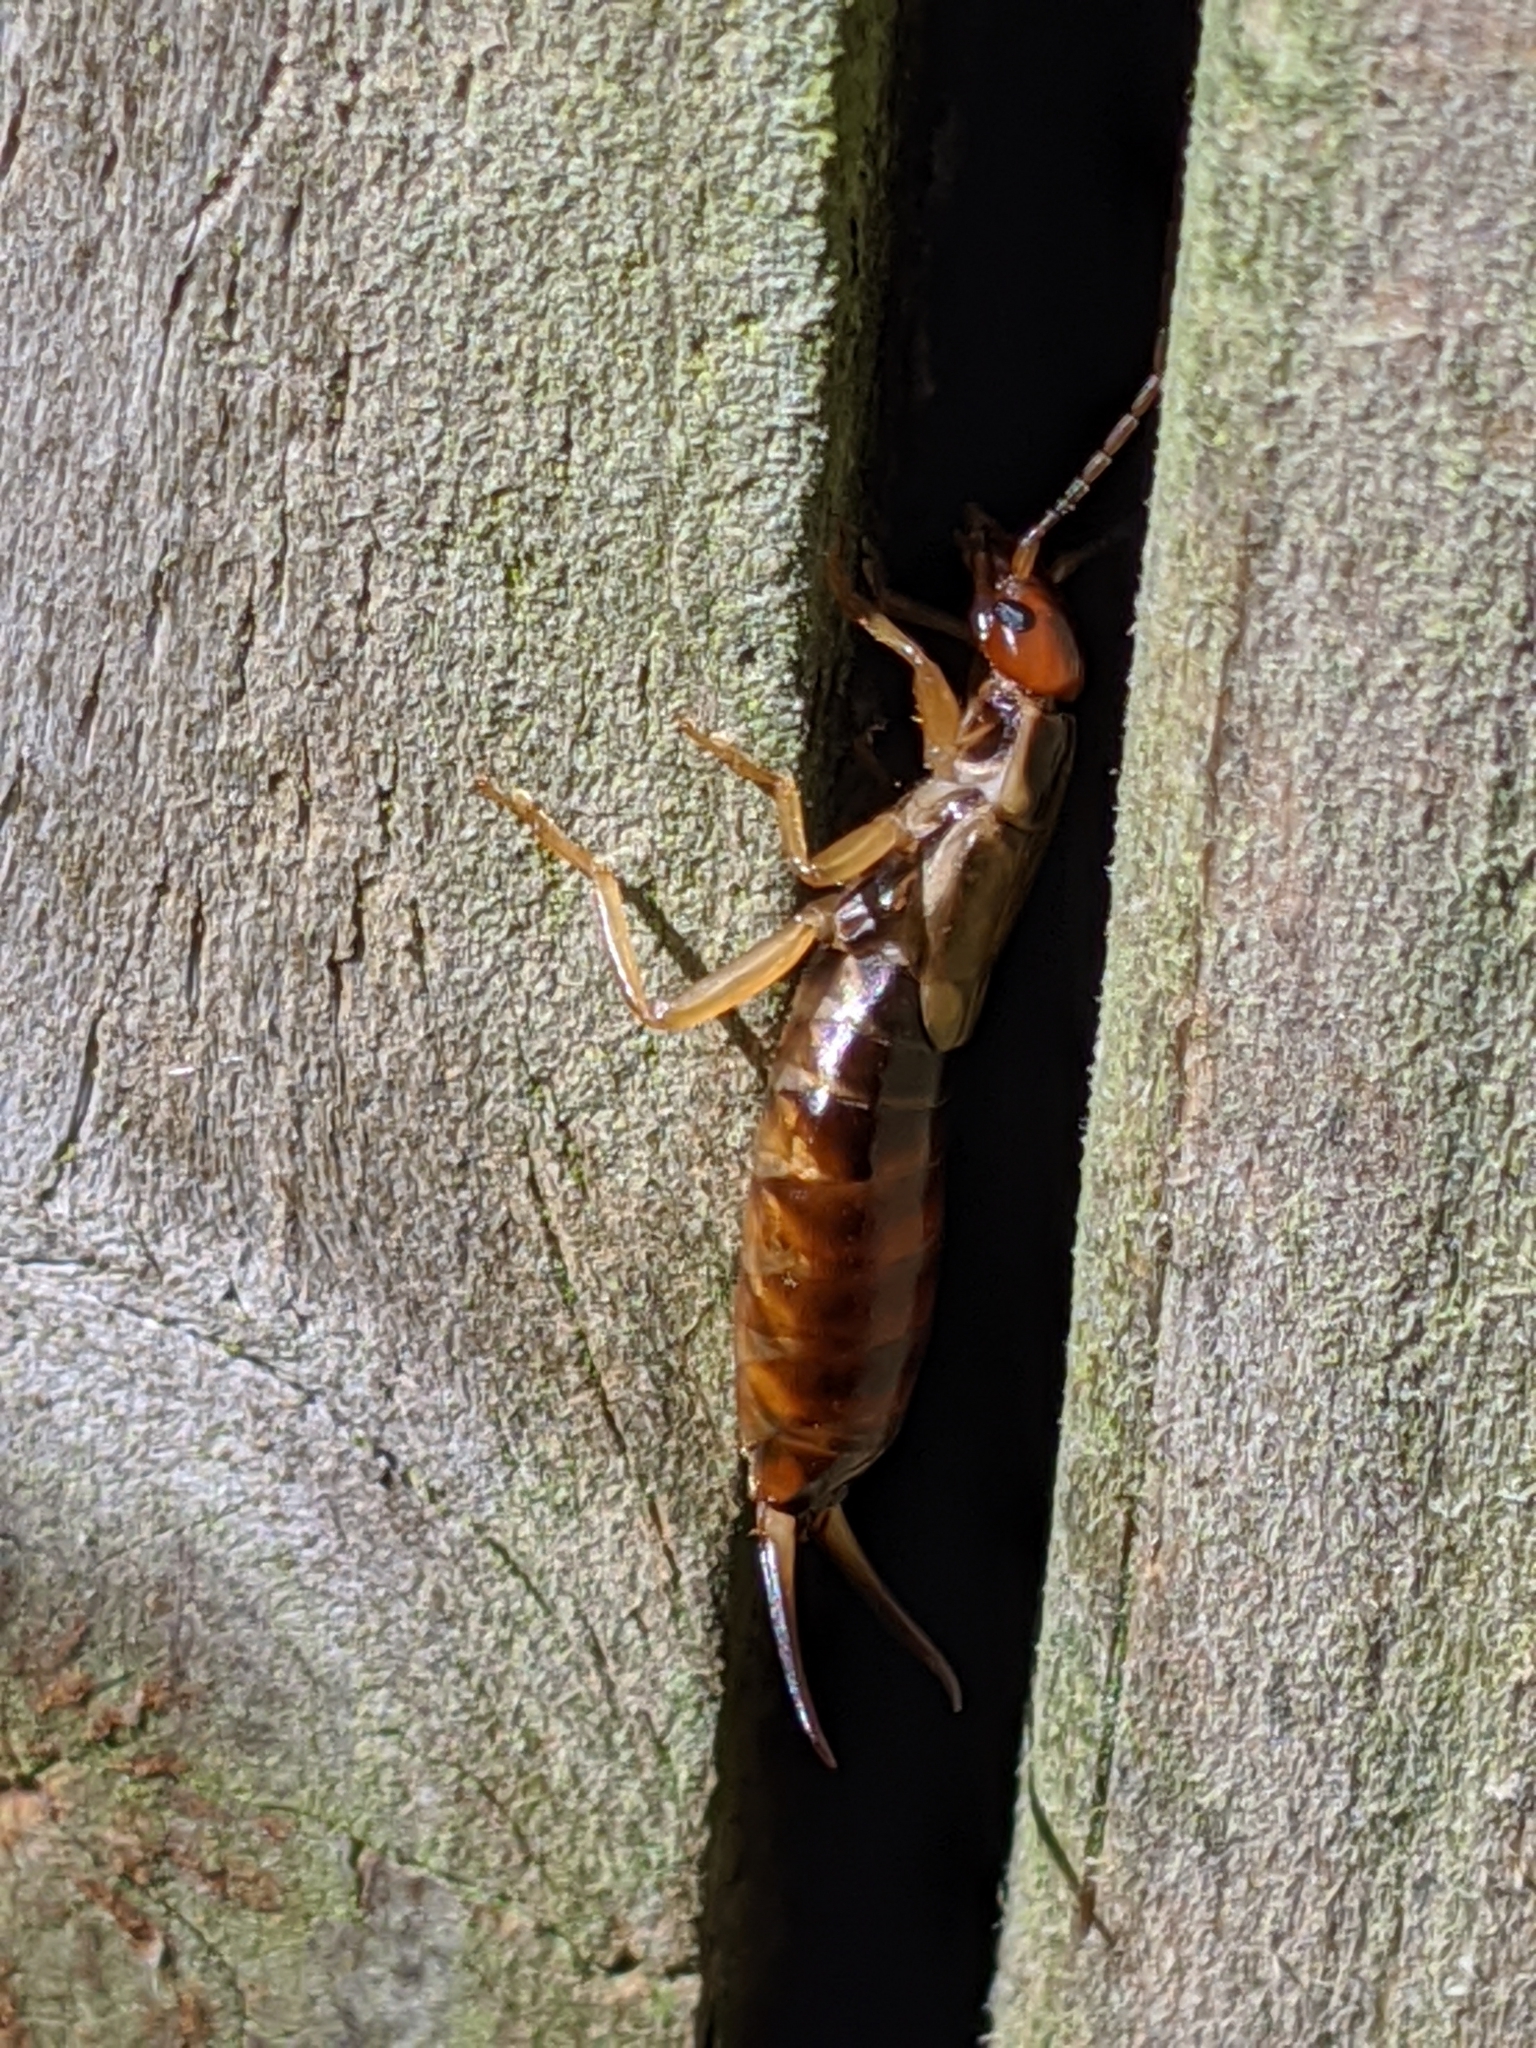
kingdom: Animalia
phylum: Arthropoda
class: Insecta
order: Dermaptera
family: Forficulidae
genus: Forficula
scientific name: Forficula
